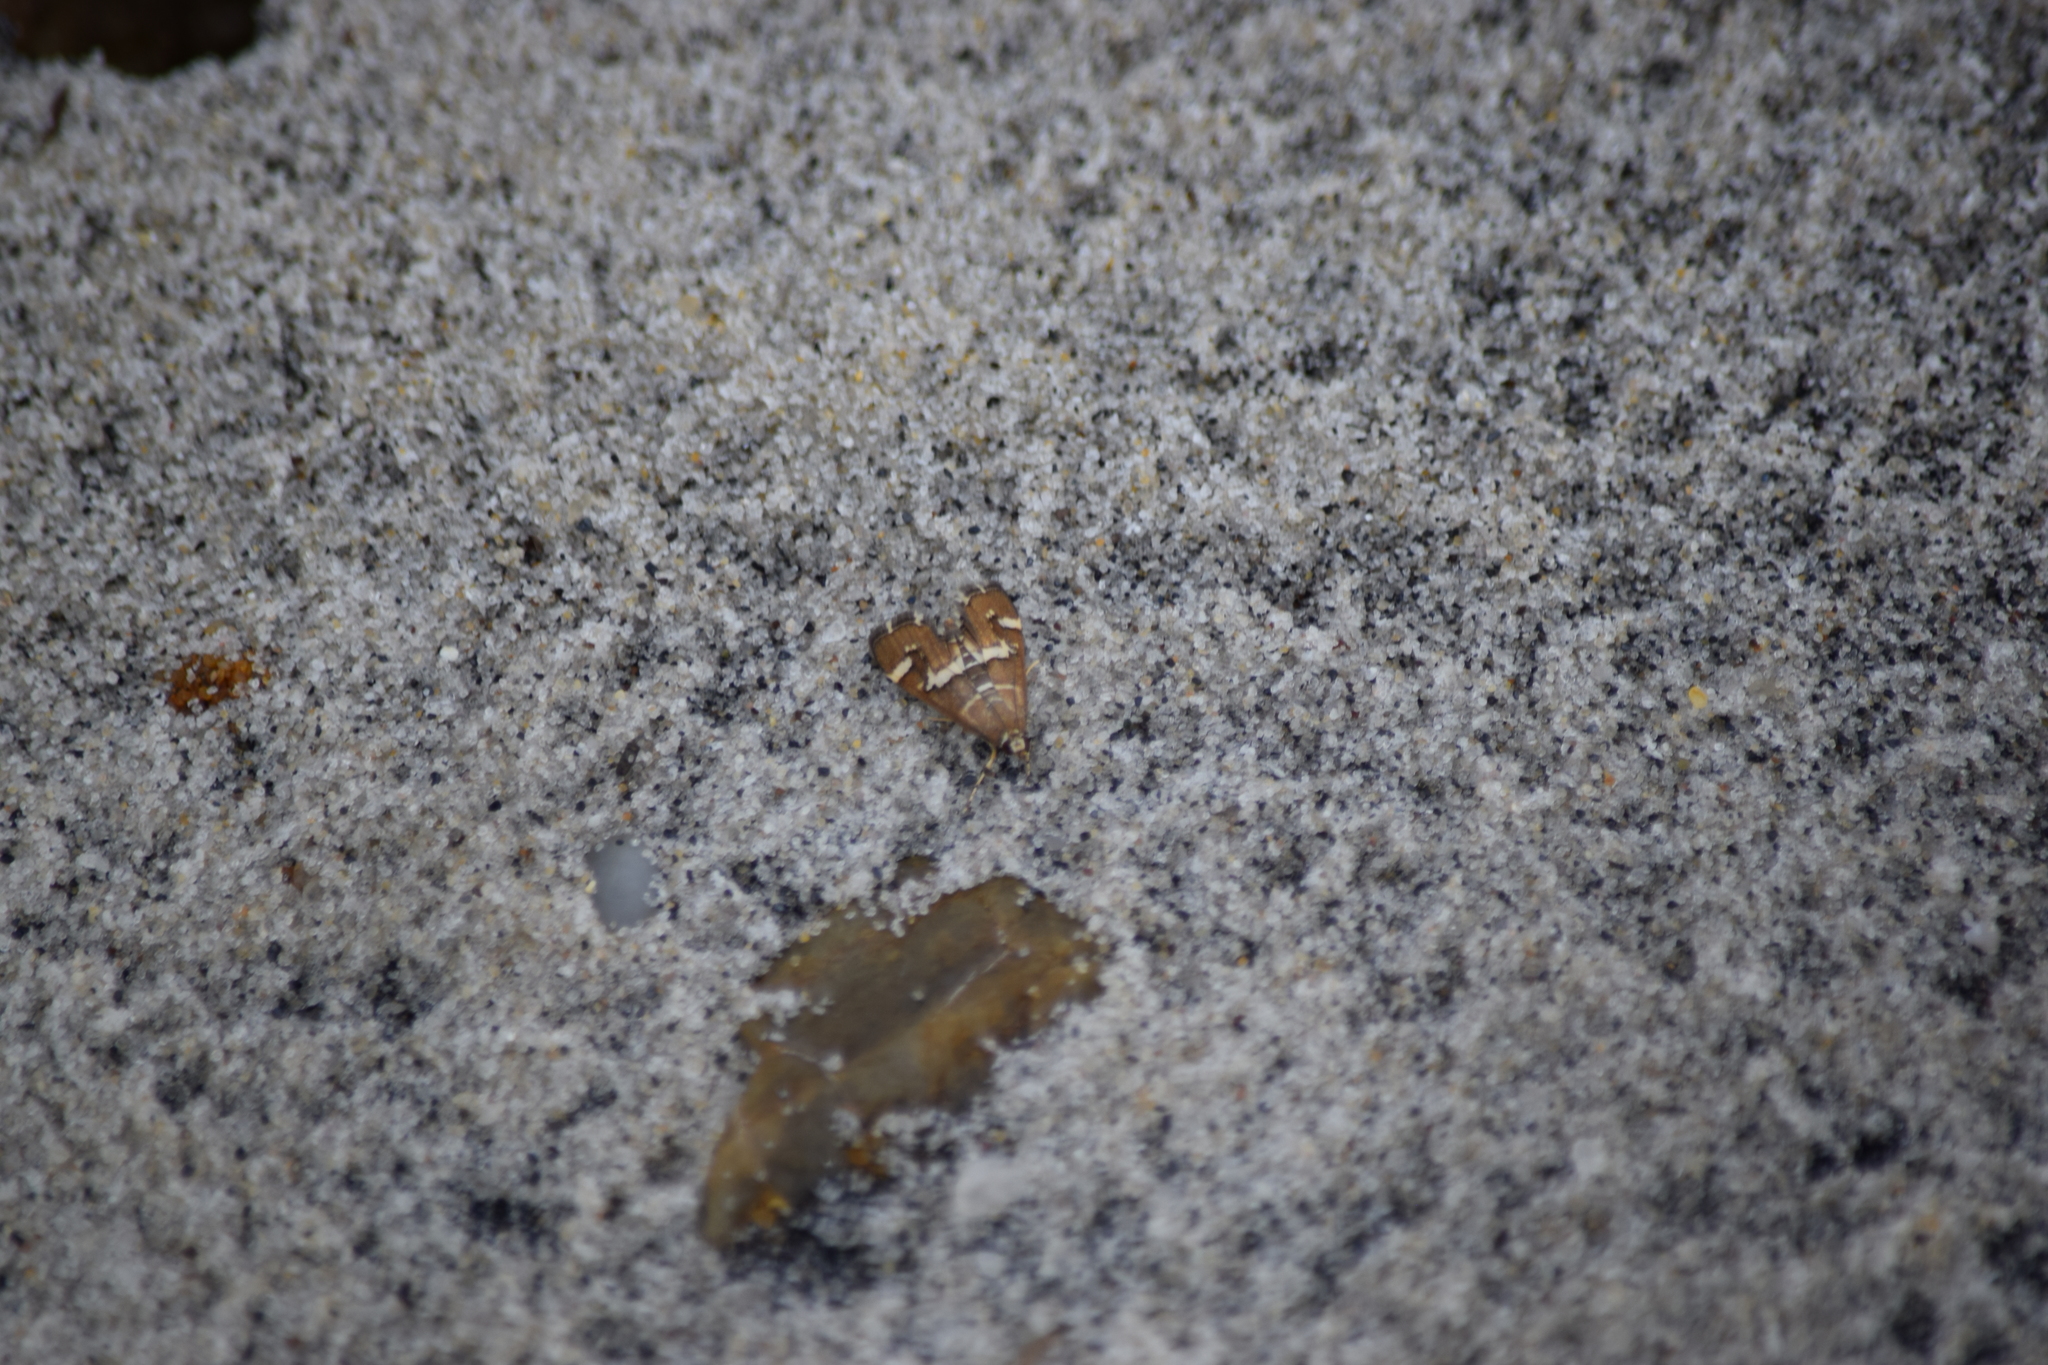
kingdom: Animalia
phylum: Arthropoda
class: Insecta
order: Lepidoptera
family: Crambidae
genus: Spoladea
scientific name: Spoladea recurvalis
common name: Beet webworm moth
